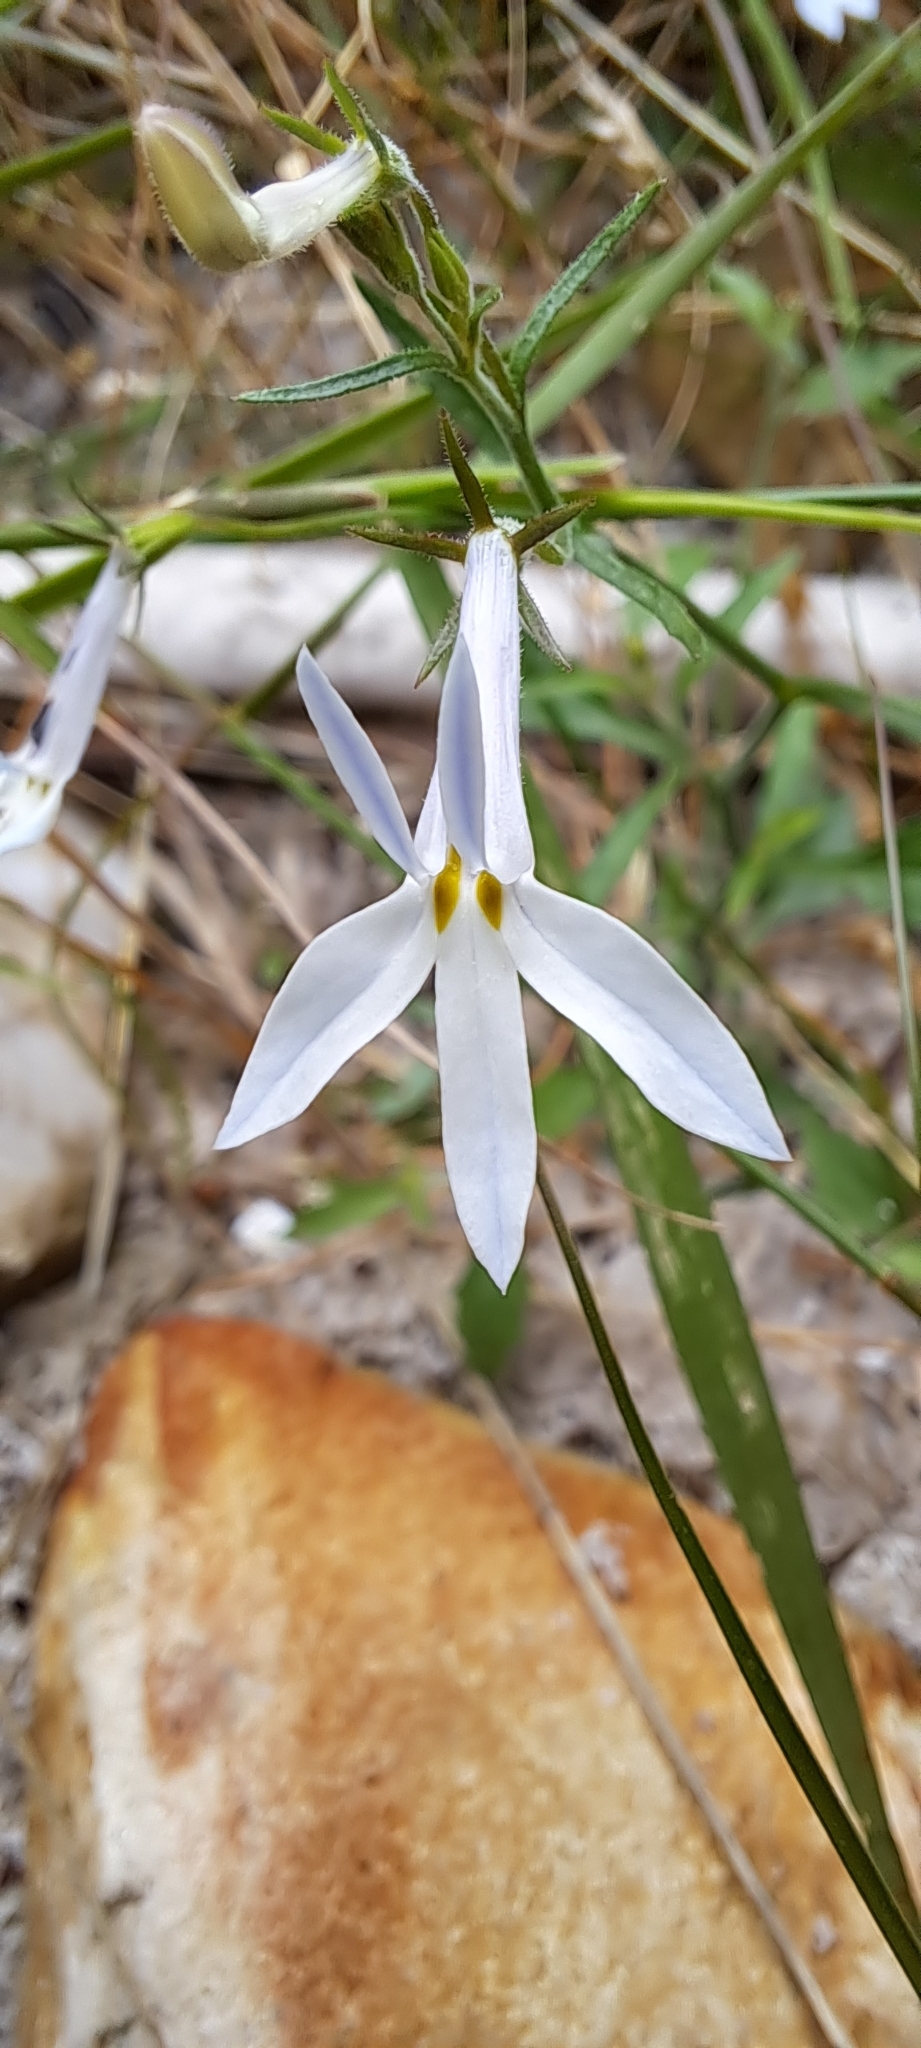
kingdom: Plantae
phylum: Tracheophyta
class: Magnoliopsida
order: Asterales
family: Campanulaceae
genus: Lobelia
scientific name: Lobelia pubescens
